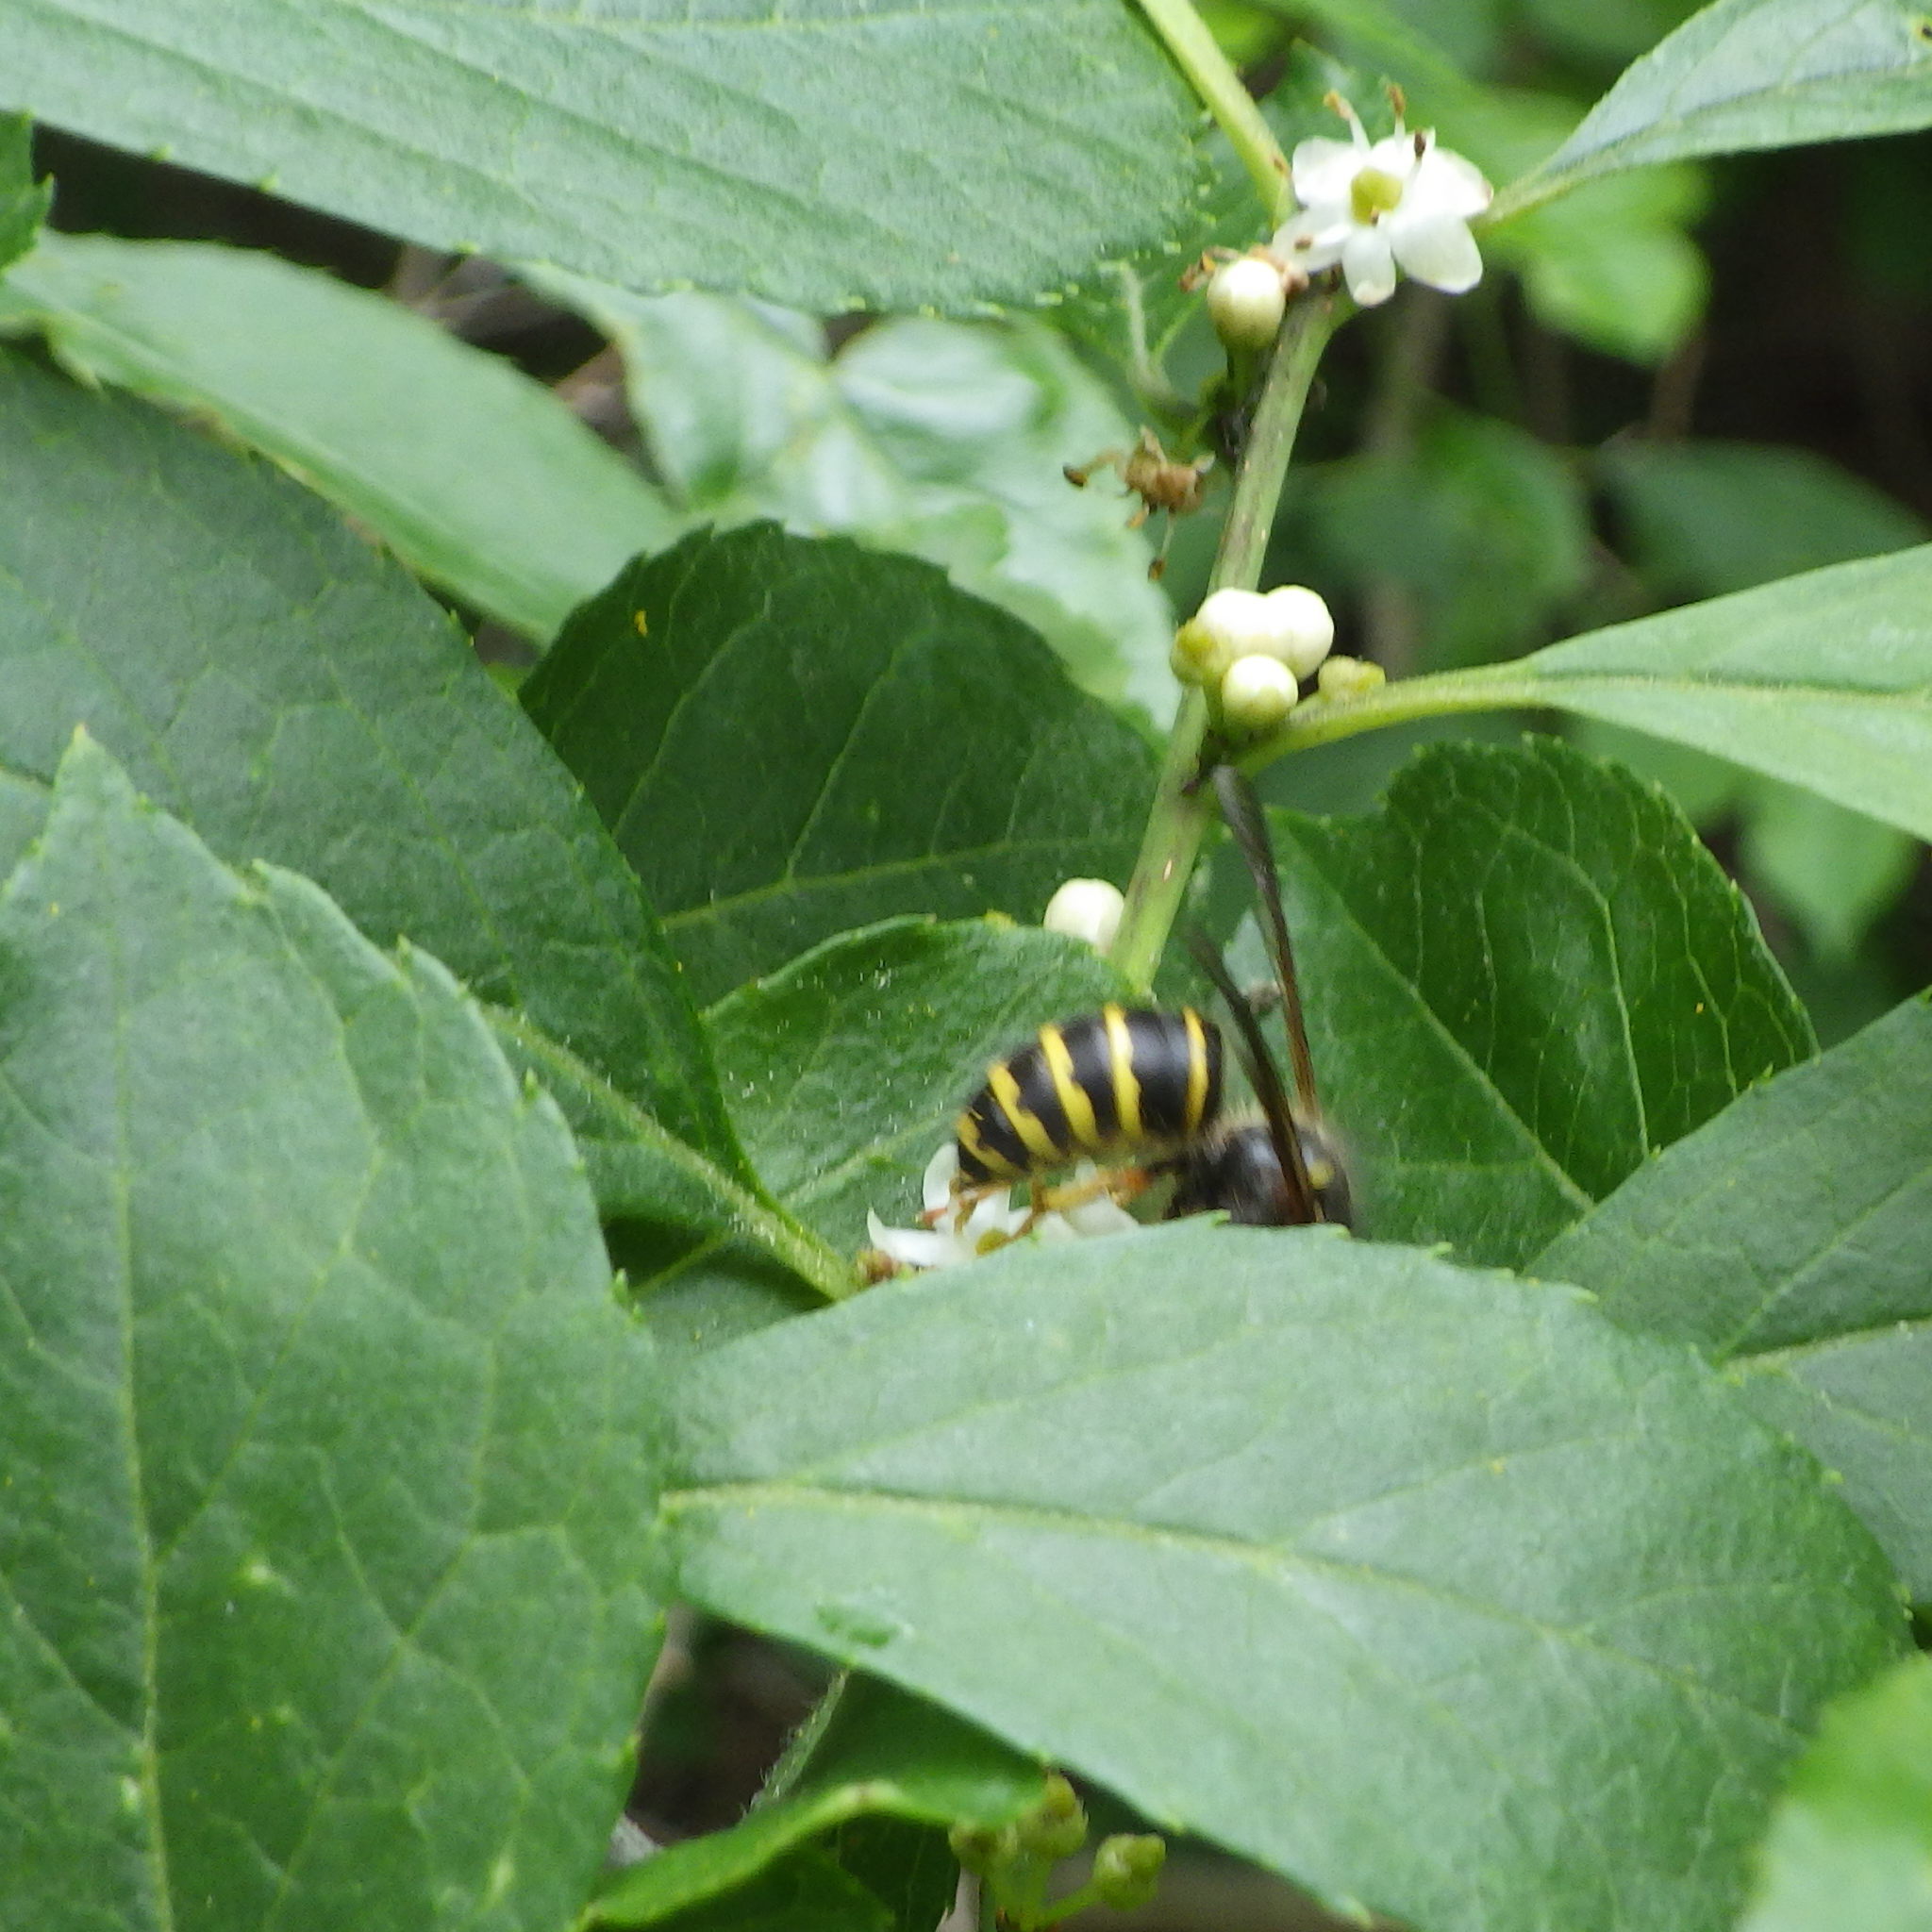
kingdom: Animalia
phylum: Arthropoda
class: Insecta
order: Hymenoptera
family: Vespidae
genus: Dolichovespula
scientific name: Dolichovespula norvegicoides
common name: Northern aerial yellowjacket
